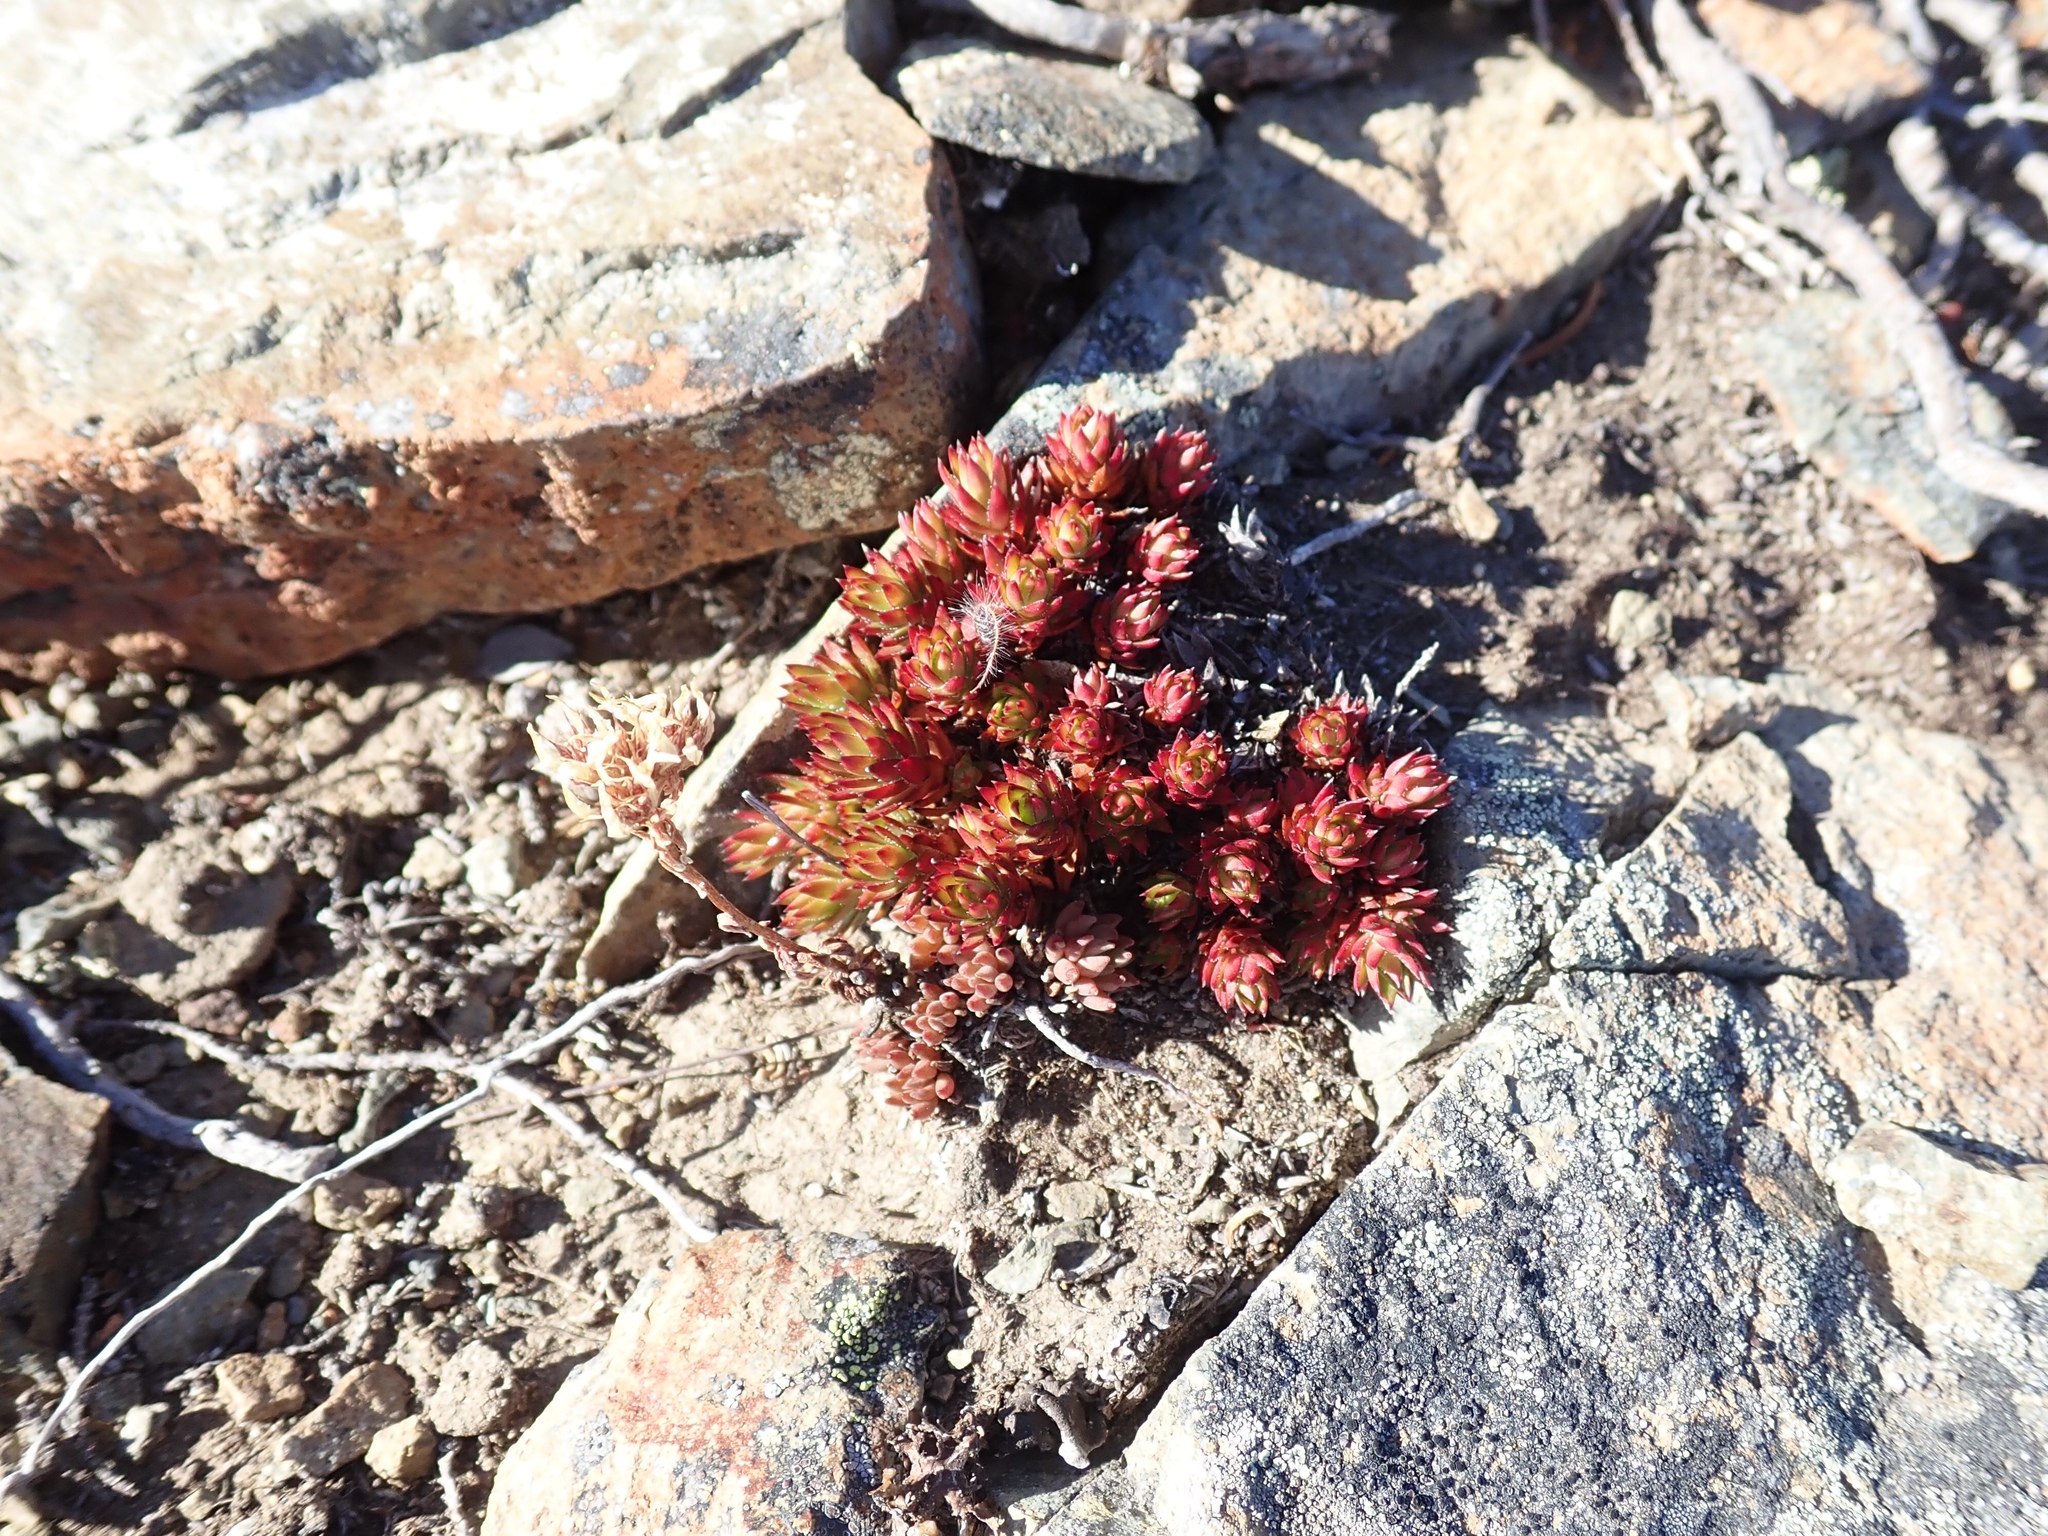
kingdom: Plantae
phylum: Tracheophyta
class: Magnoliopsida
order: Saxifragales
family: Saxifragaceae
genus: Saxifraga
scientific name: Saxifraga bronchialis
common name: Matted saxifrage
